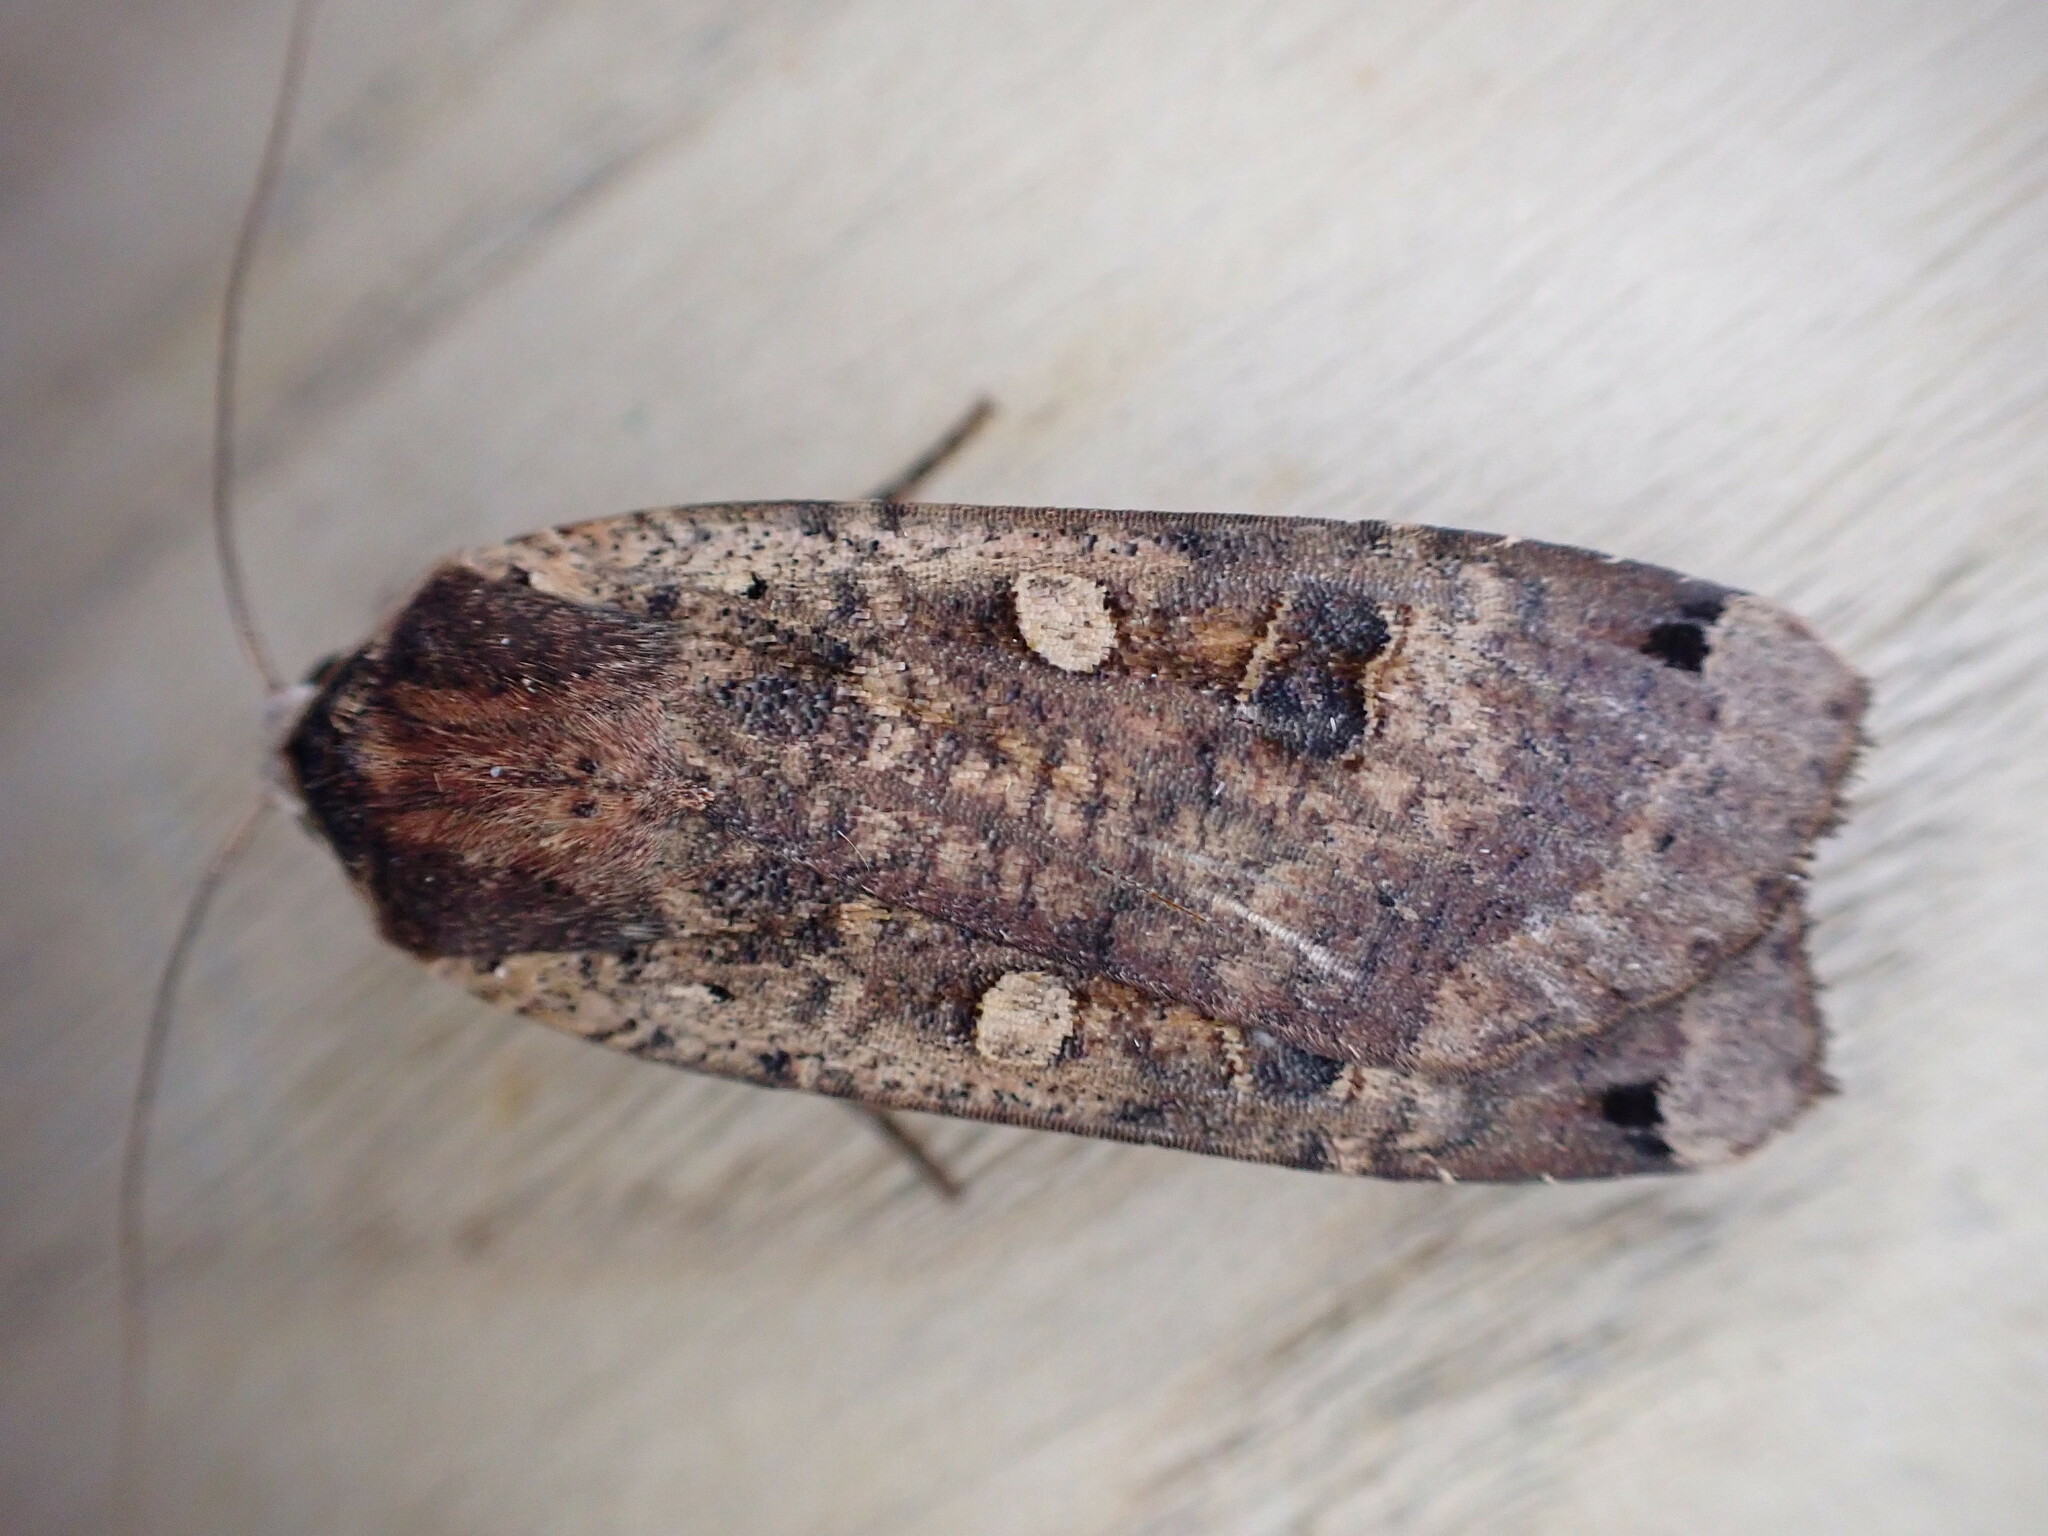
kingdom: Animalia
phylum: Arthropoda
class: Insecta
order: Lepidoptera
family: Noctuidae
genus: Noctua
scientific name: Noctua pronuba
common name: Large yellow underwing
